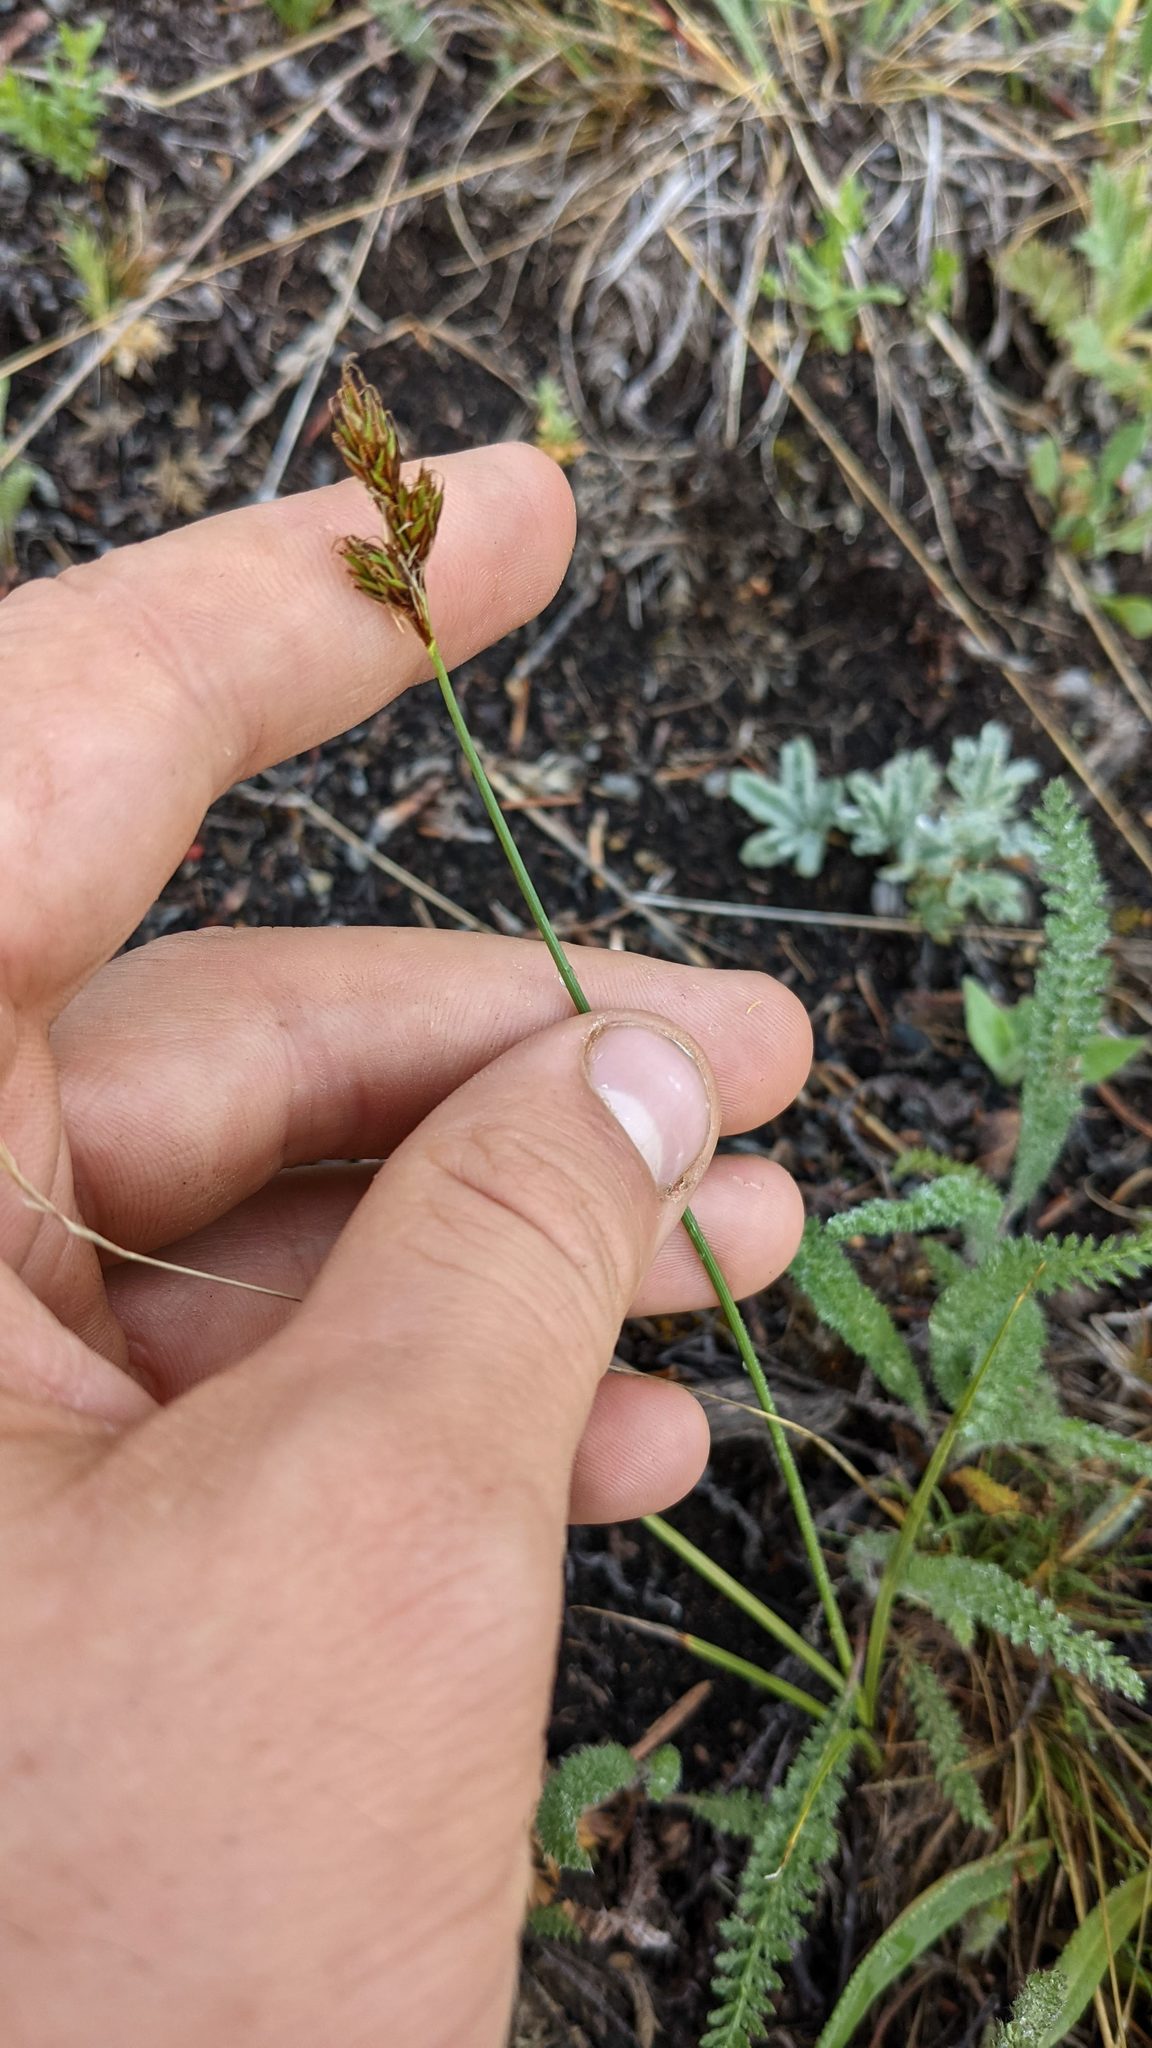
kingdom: Plantae
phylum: Tracheophyta
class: Liliopsida
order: Poales
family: Cyperaceae
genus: Carex
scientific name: Carex tahoensis
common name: Lake tahoe sedge
